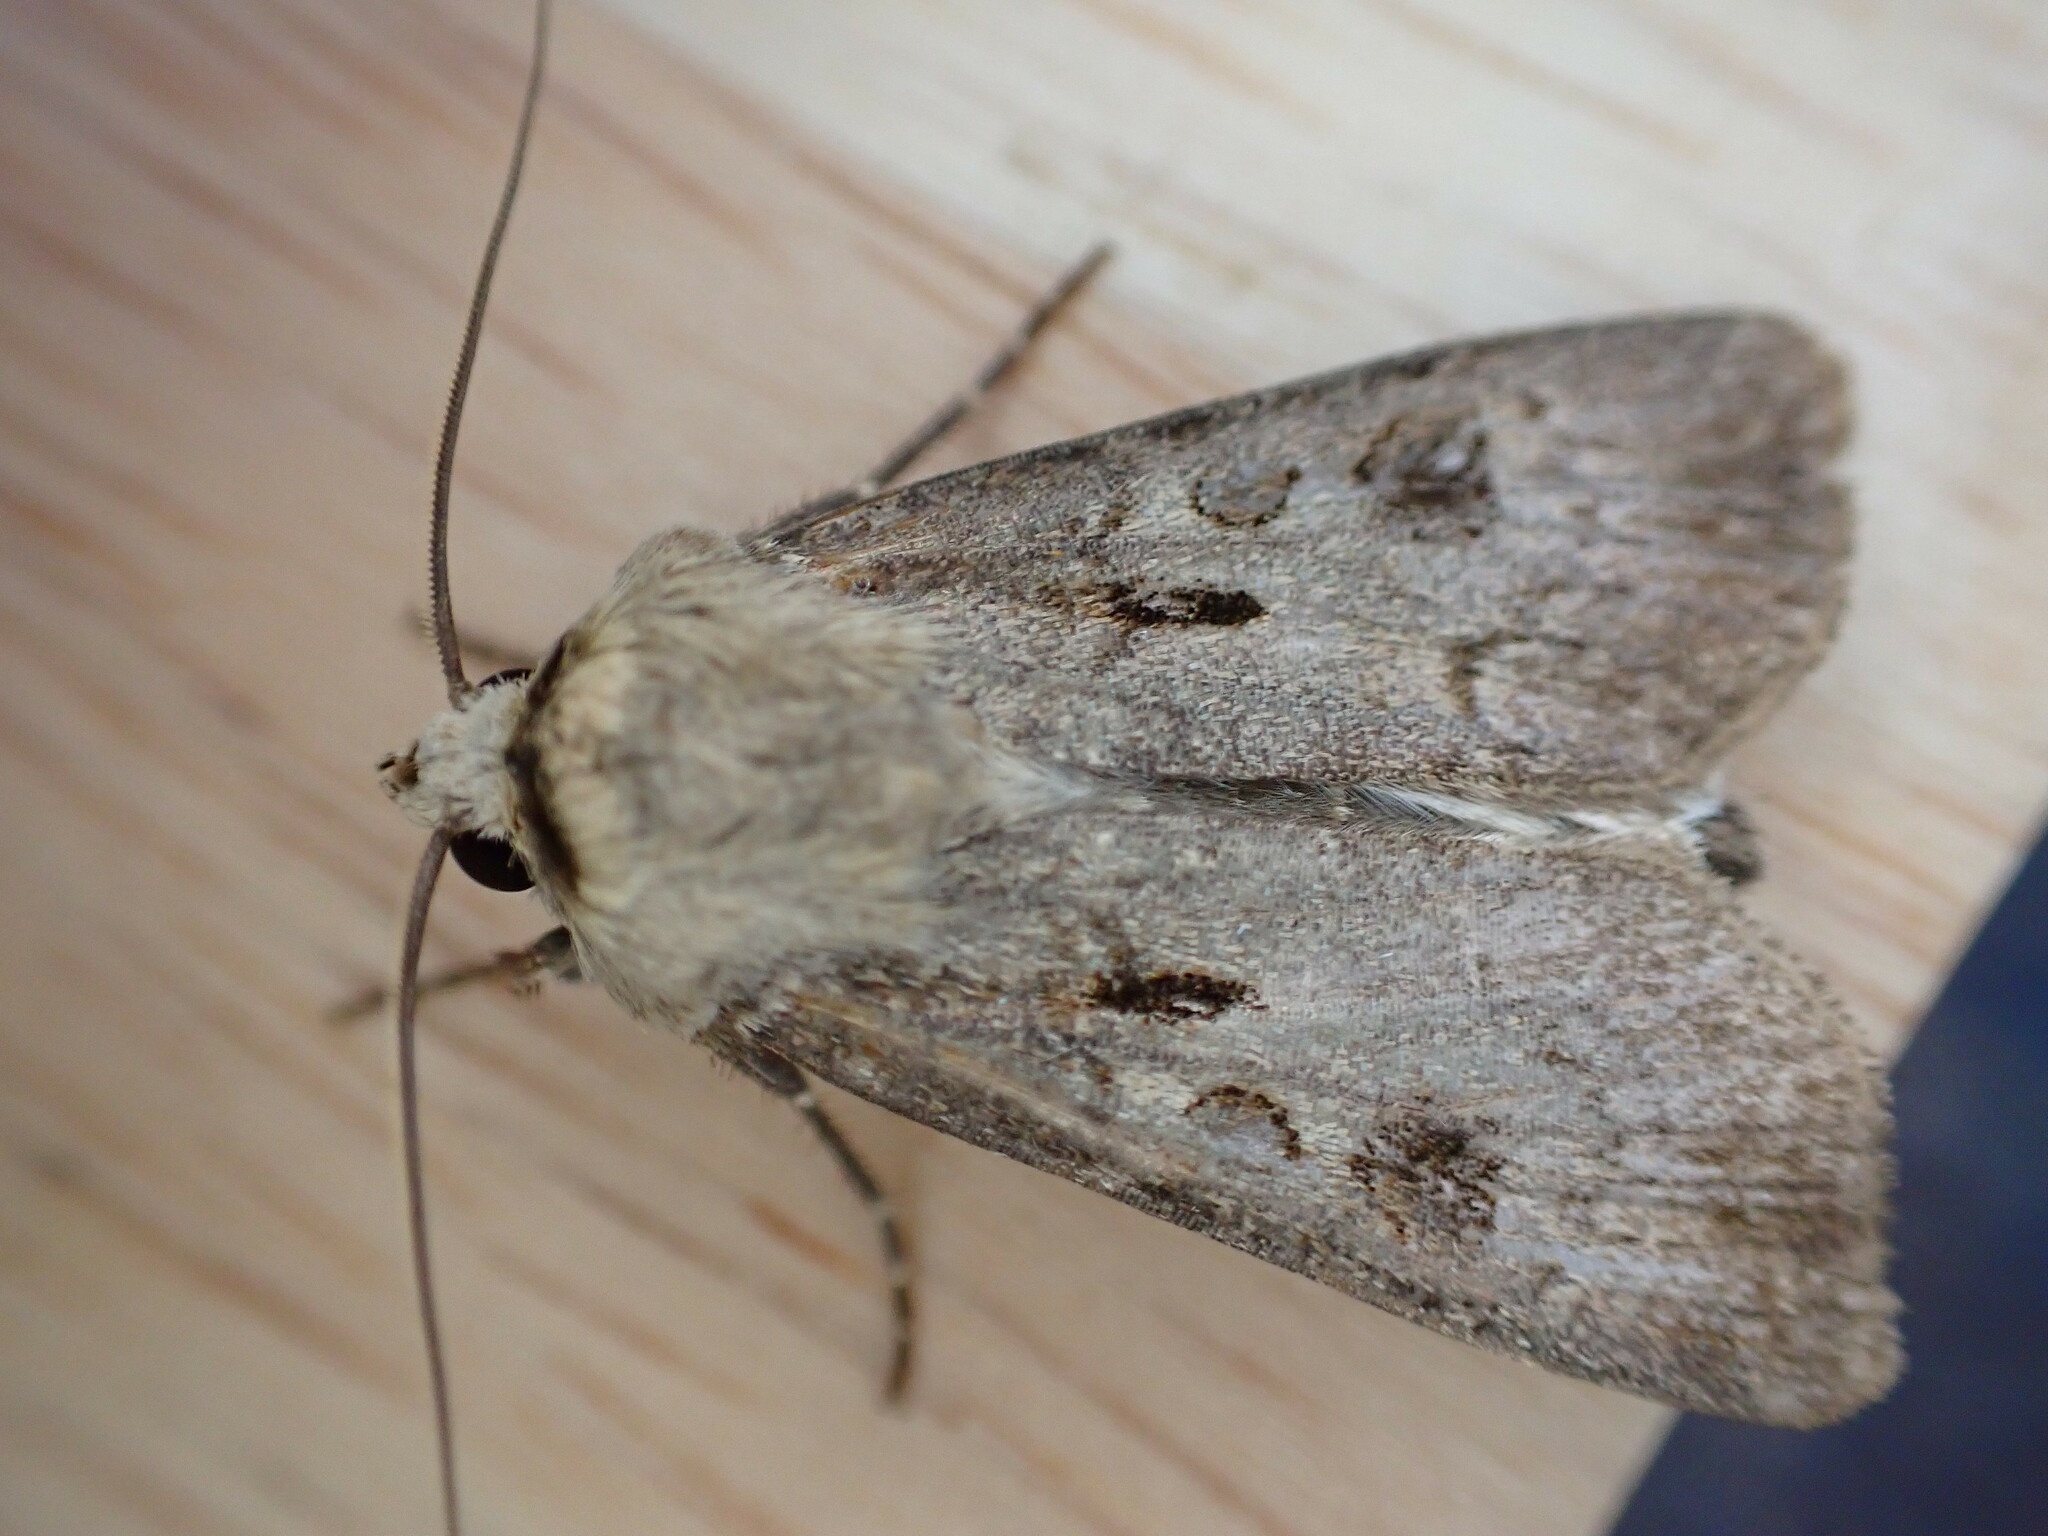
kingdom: Animalia
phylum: Arthropoda
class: Insecta
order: Lepidoptera
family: Noctuidae
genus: Agrotis
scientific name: Agrotis exclamationis
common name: Heart and dart
